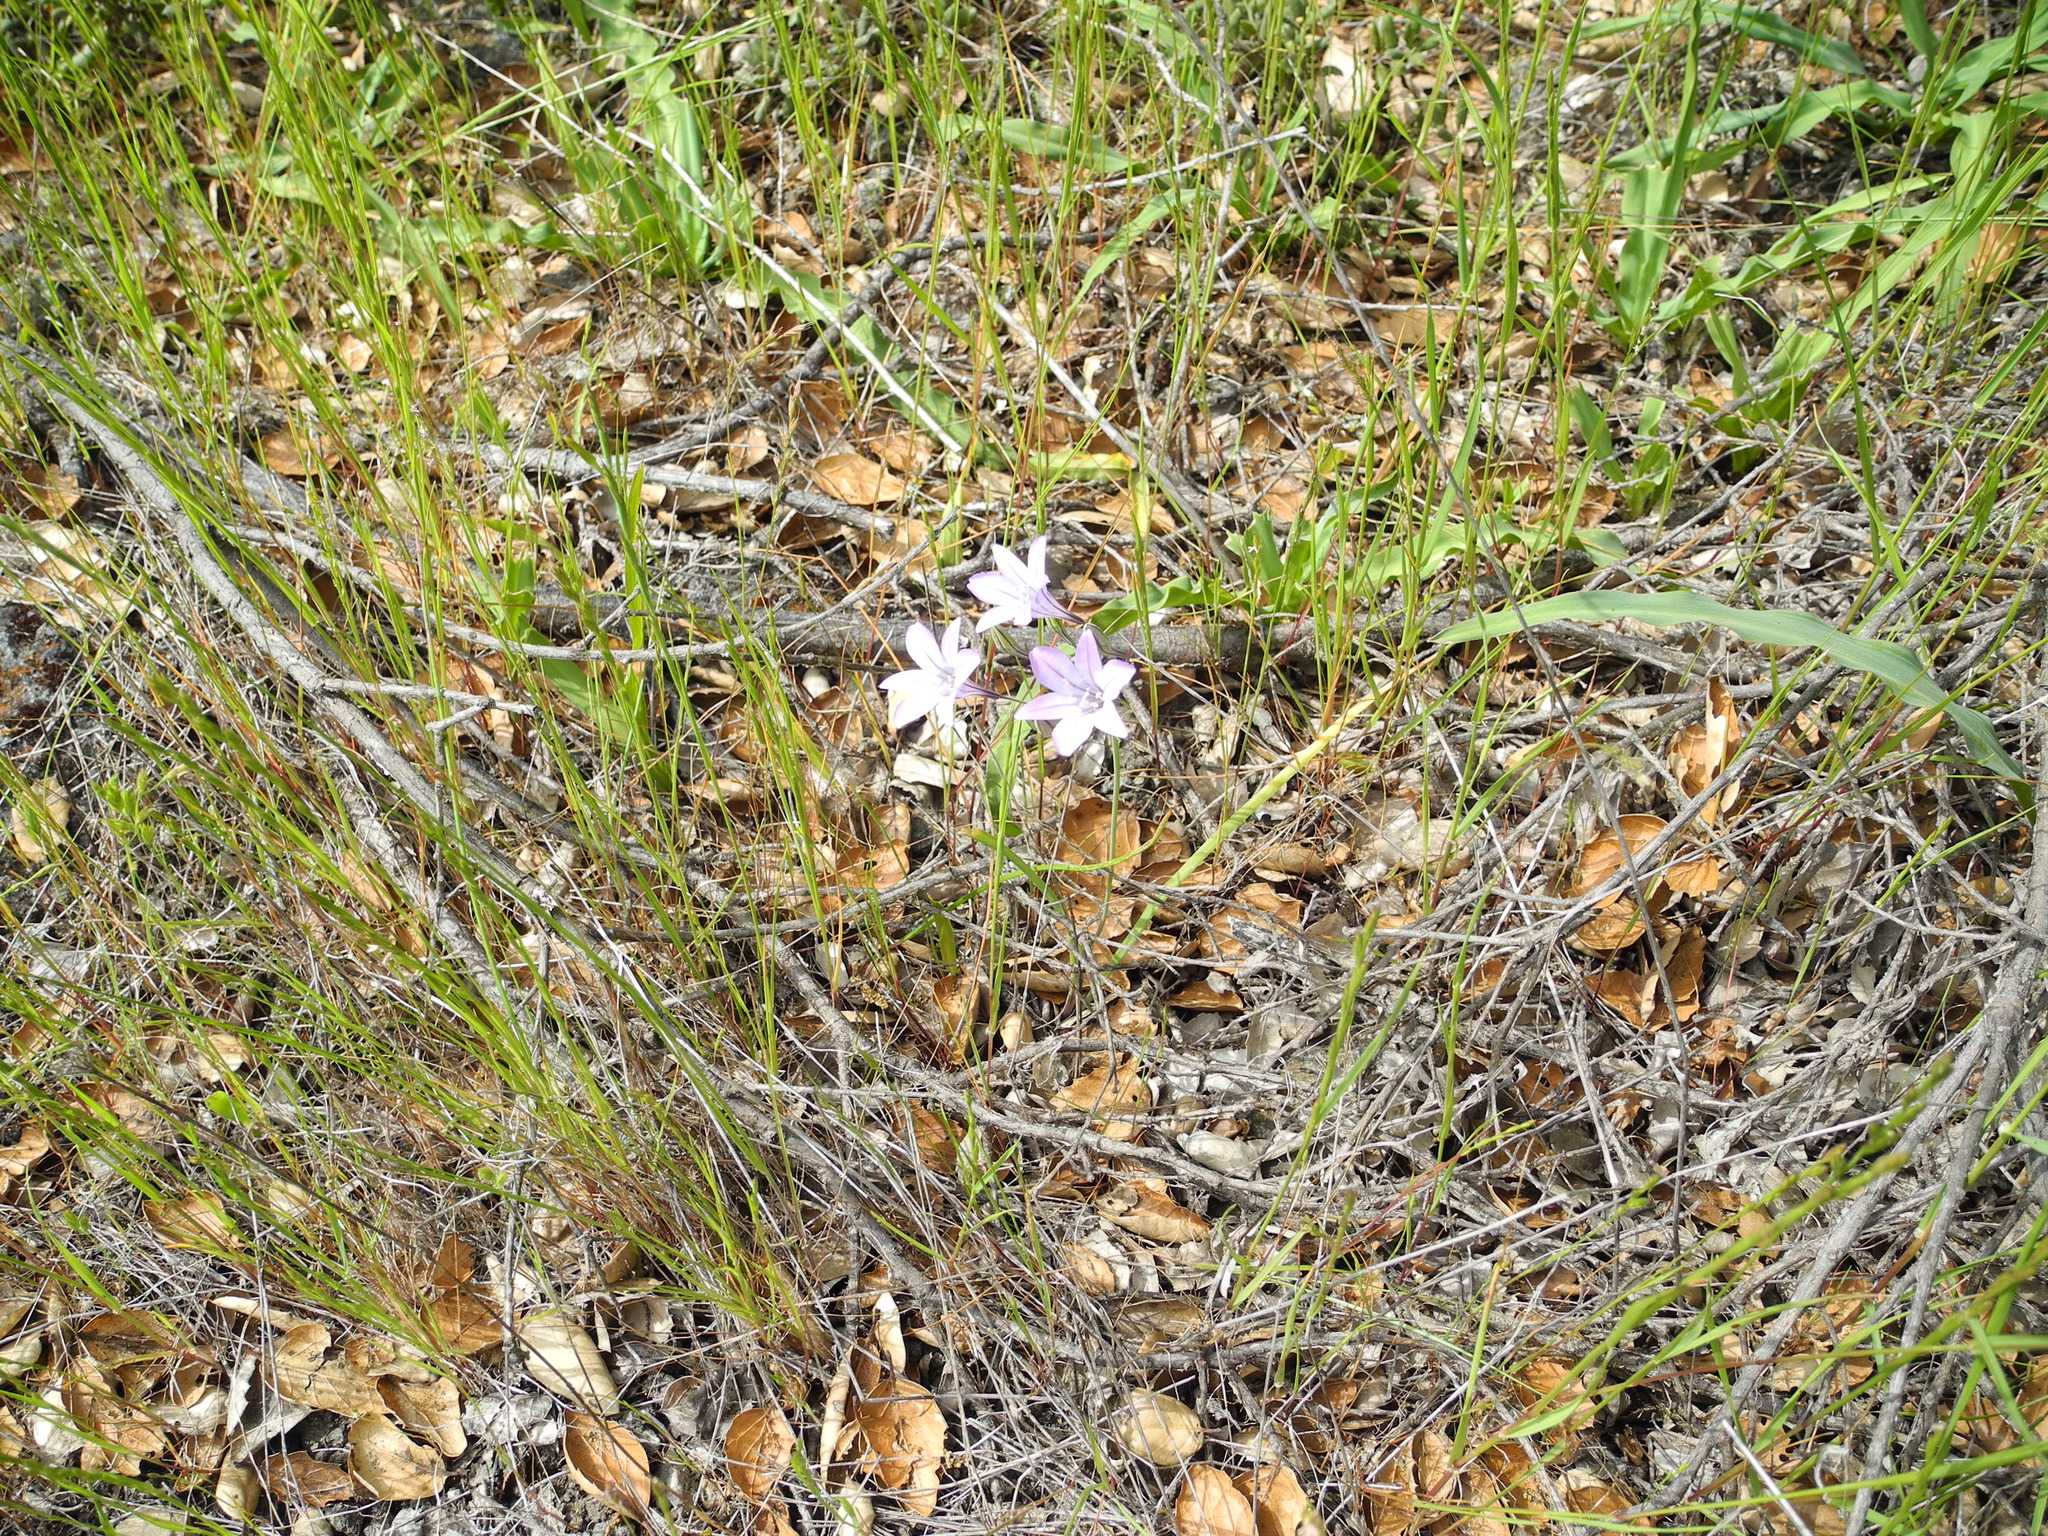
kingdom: Plantae
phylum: Tracheophyta
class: Liliopsida
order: Asparagales
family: Asparagaceae
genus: Triteleia
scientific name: Triteleia laxa
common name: Triplet-lily
